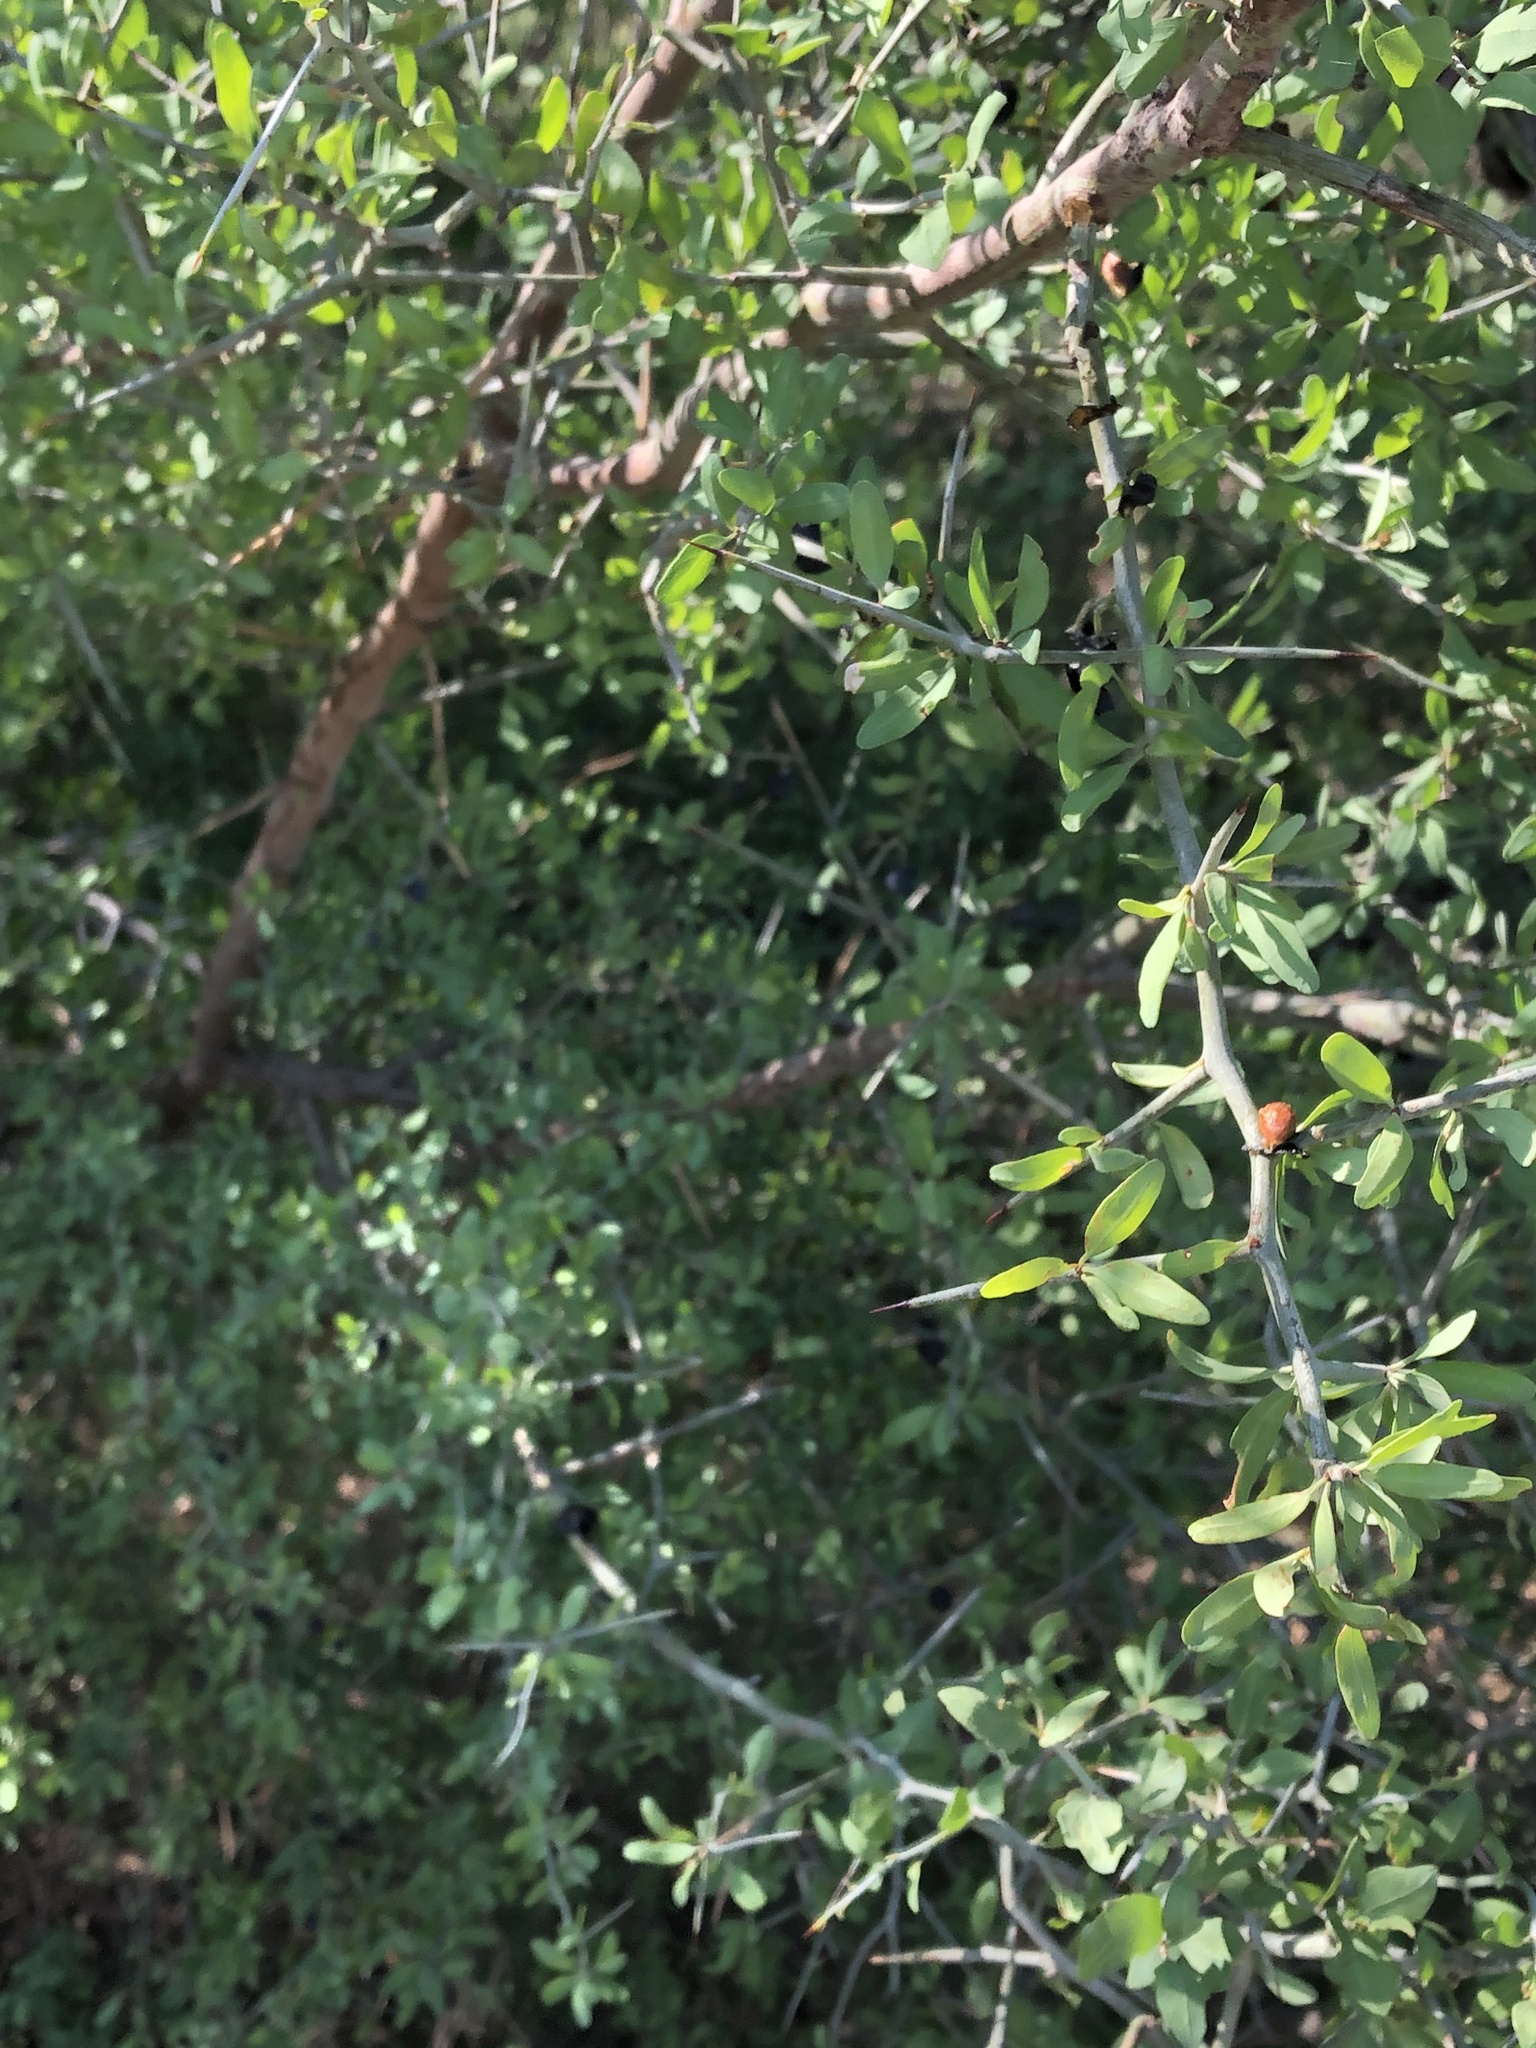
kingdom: Plantae
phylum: Tracheophyta
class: Magnoliopsida
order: Rosales
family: Rhamnaceae
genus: Sarcomphalus
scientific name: Sarcomphalus obtusifolius
